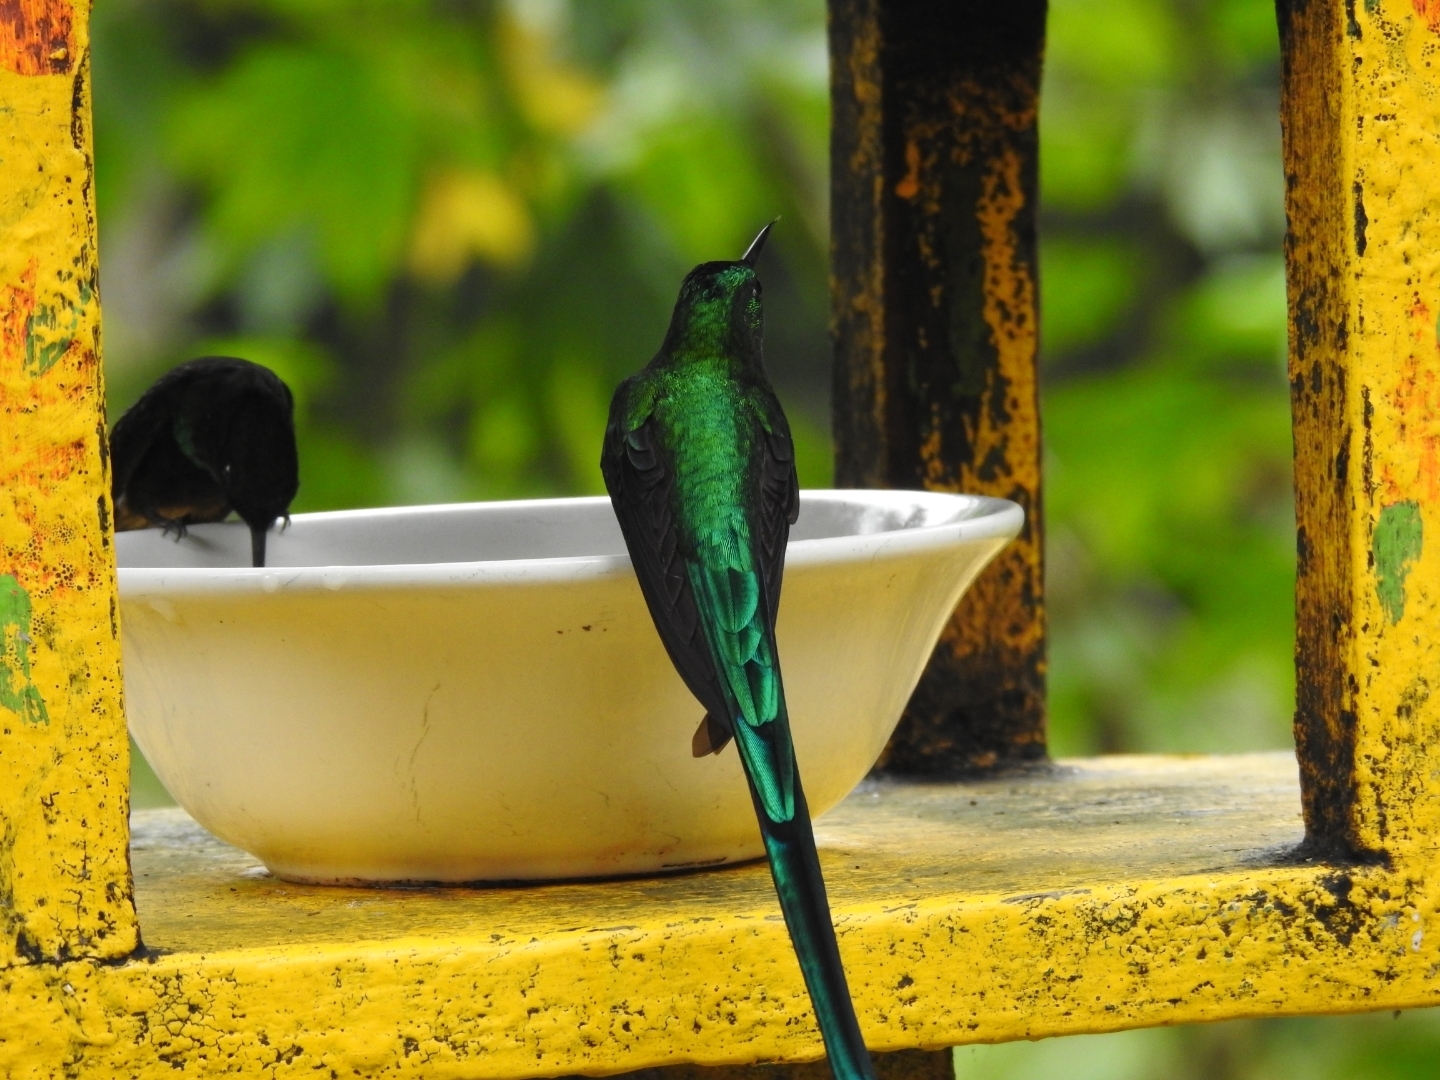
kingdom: Animalia
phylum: Chordata
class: Aves
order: Apodiformes
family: Trochilidae
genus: Aglaiocercus
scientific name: Aglaiocercus kingii
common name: Long-tailed sylph
